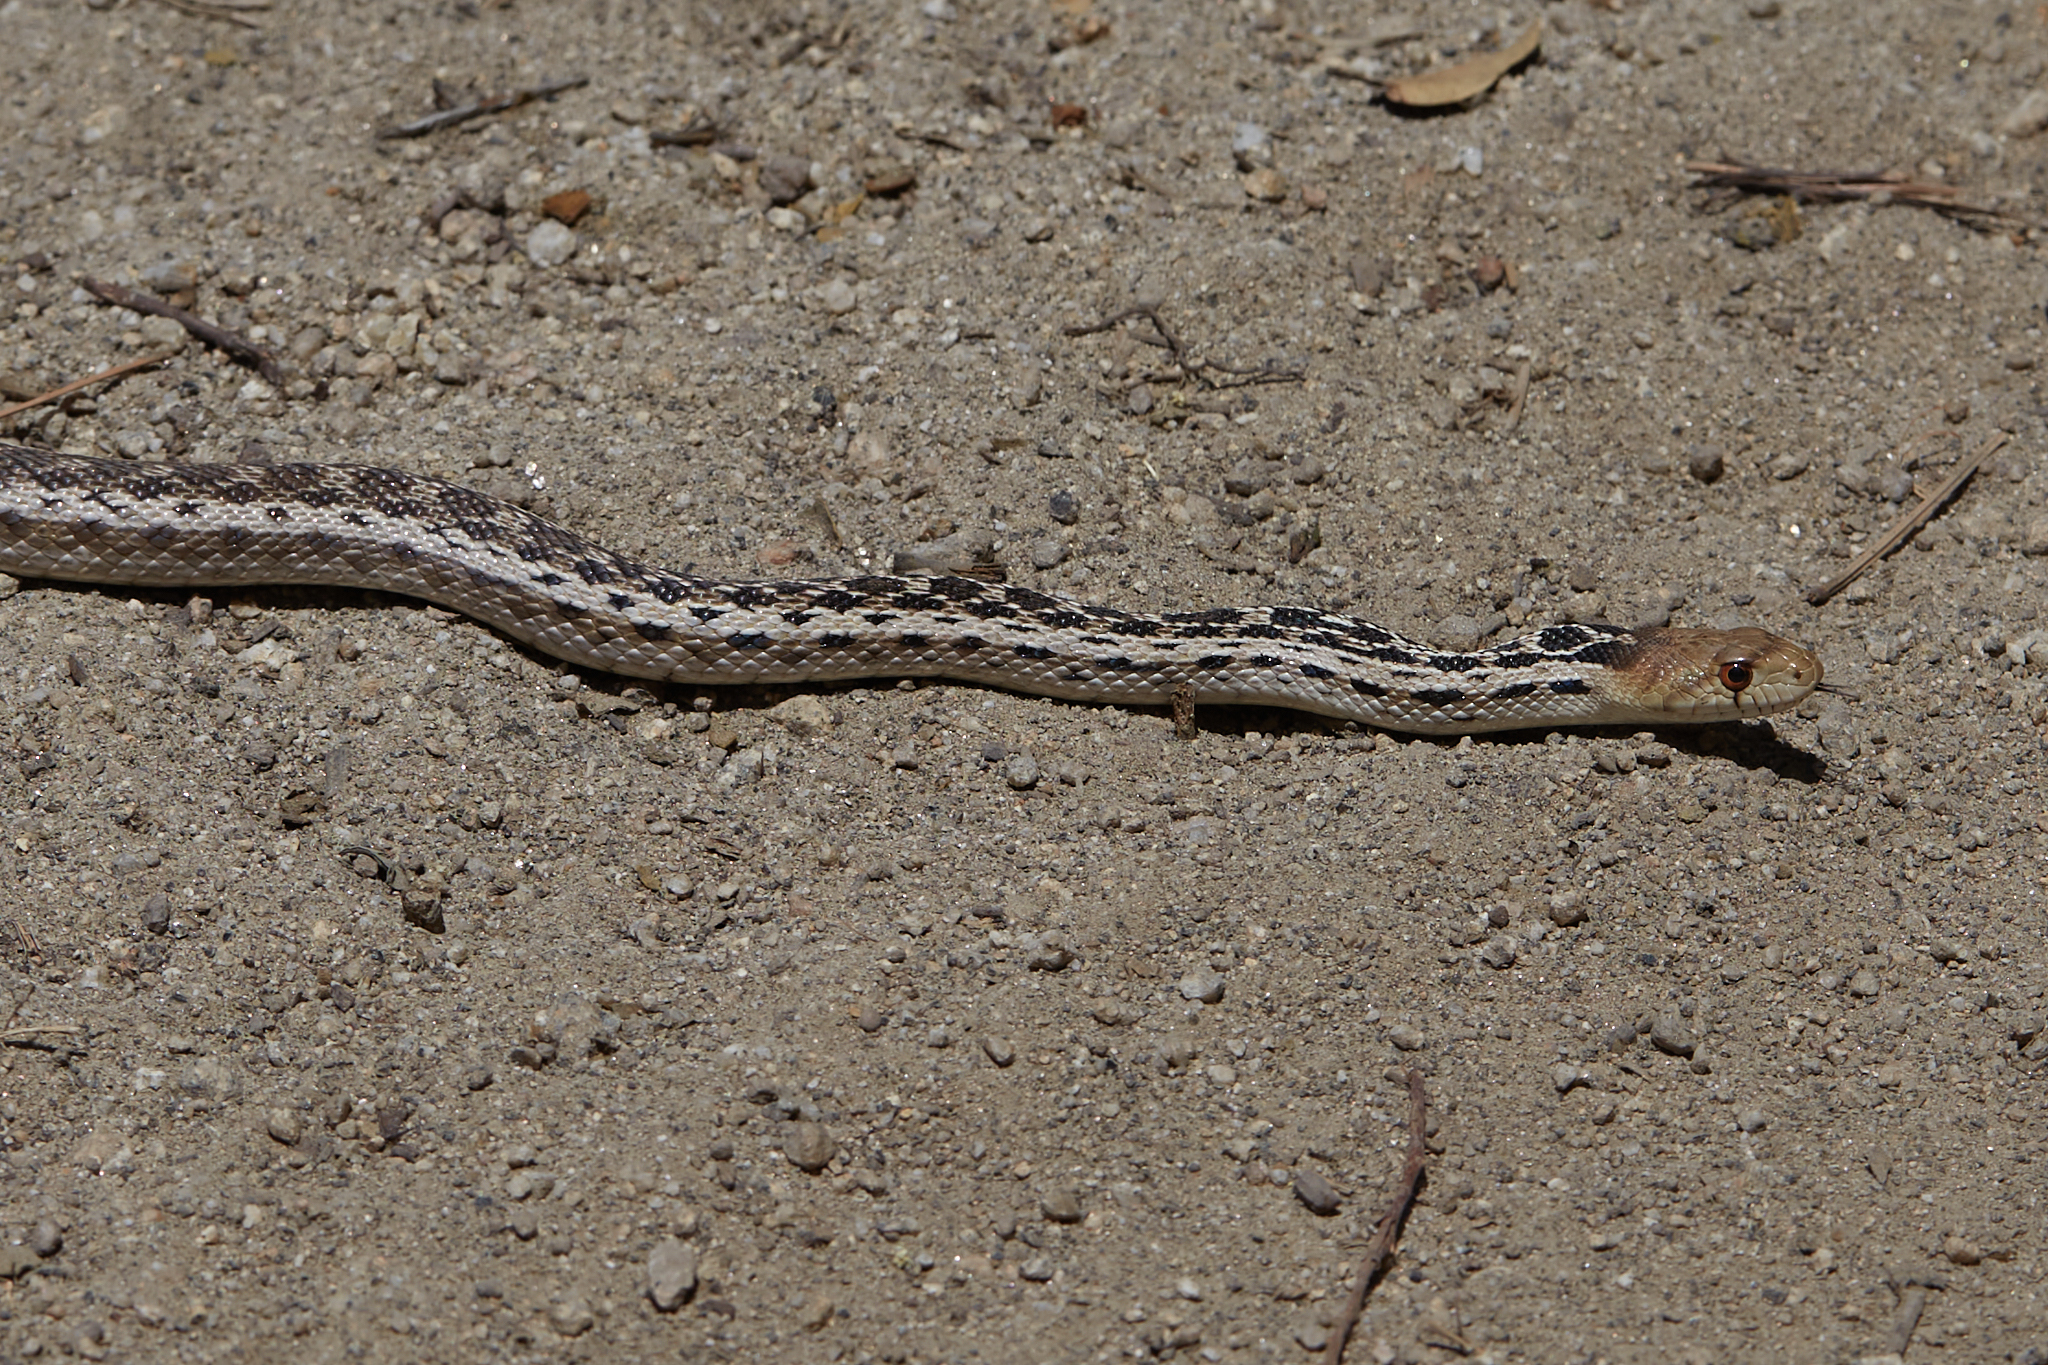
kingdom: Animalia
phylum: Chordata
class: Squamata
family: Colubridae
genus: Pituophis
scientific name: Pituophis catenifer
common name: Gopher snake
